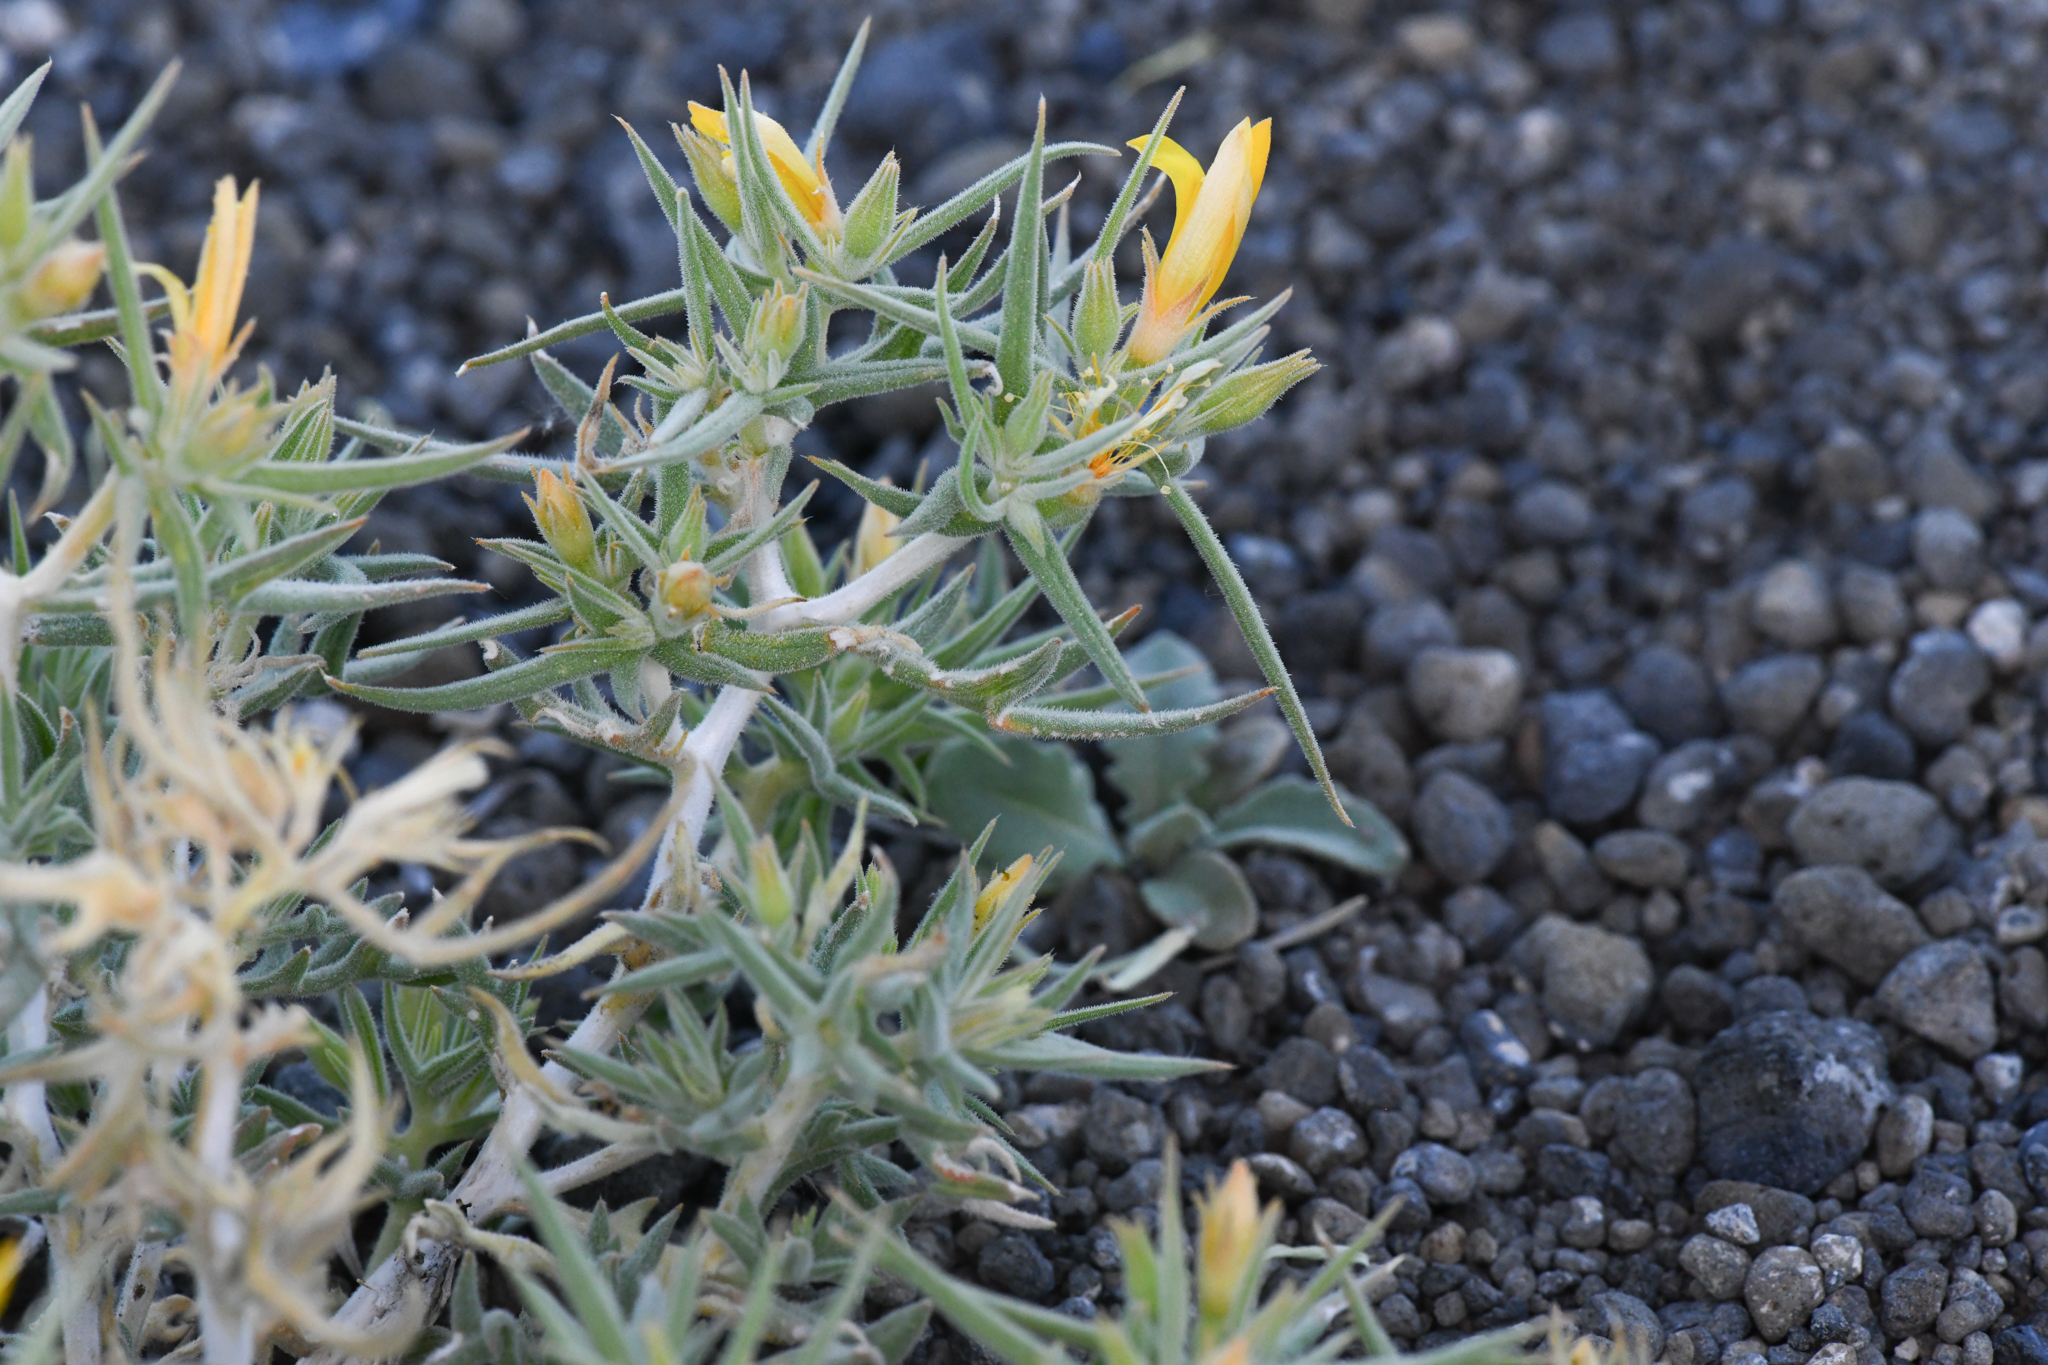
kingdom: Plantae
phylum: Tracheophyta
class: Magnoliopsida
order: Cornales
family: Loasaceae
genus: Mentzelia
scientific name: Mentzelia torreyi
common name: Torrey's blazingstar
